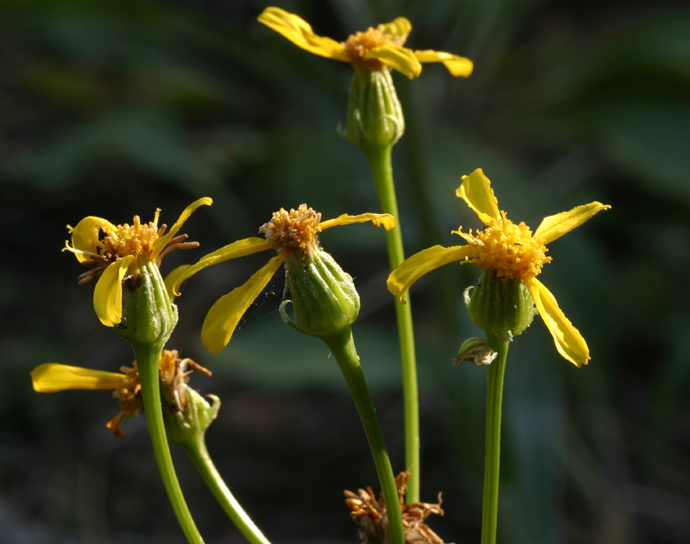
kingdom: Plantae
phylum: Tracheophyta
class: Magnoliopsida
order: Asterales
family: Asteraceae
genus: Senecio
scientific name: Senecio integerrimus
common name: Gaugeplant
